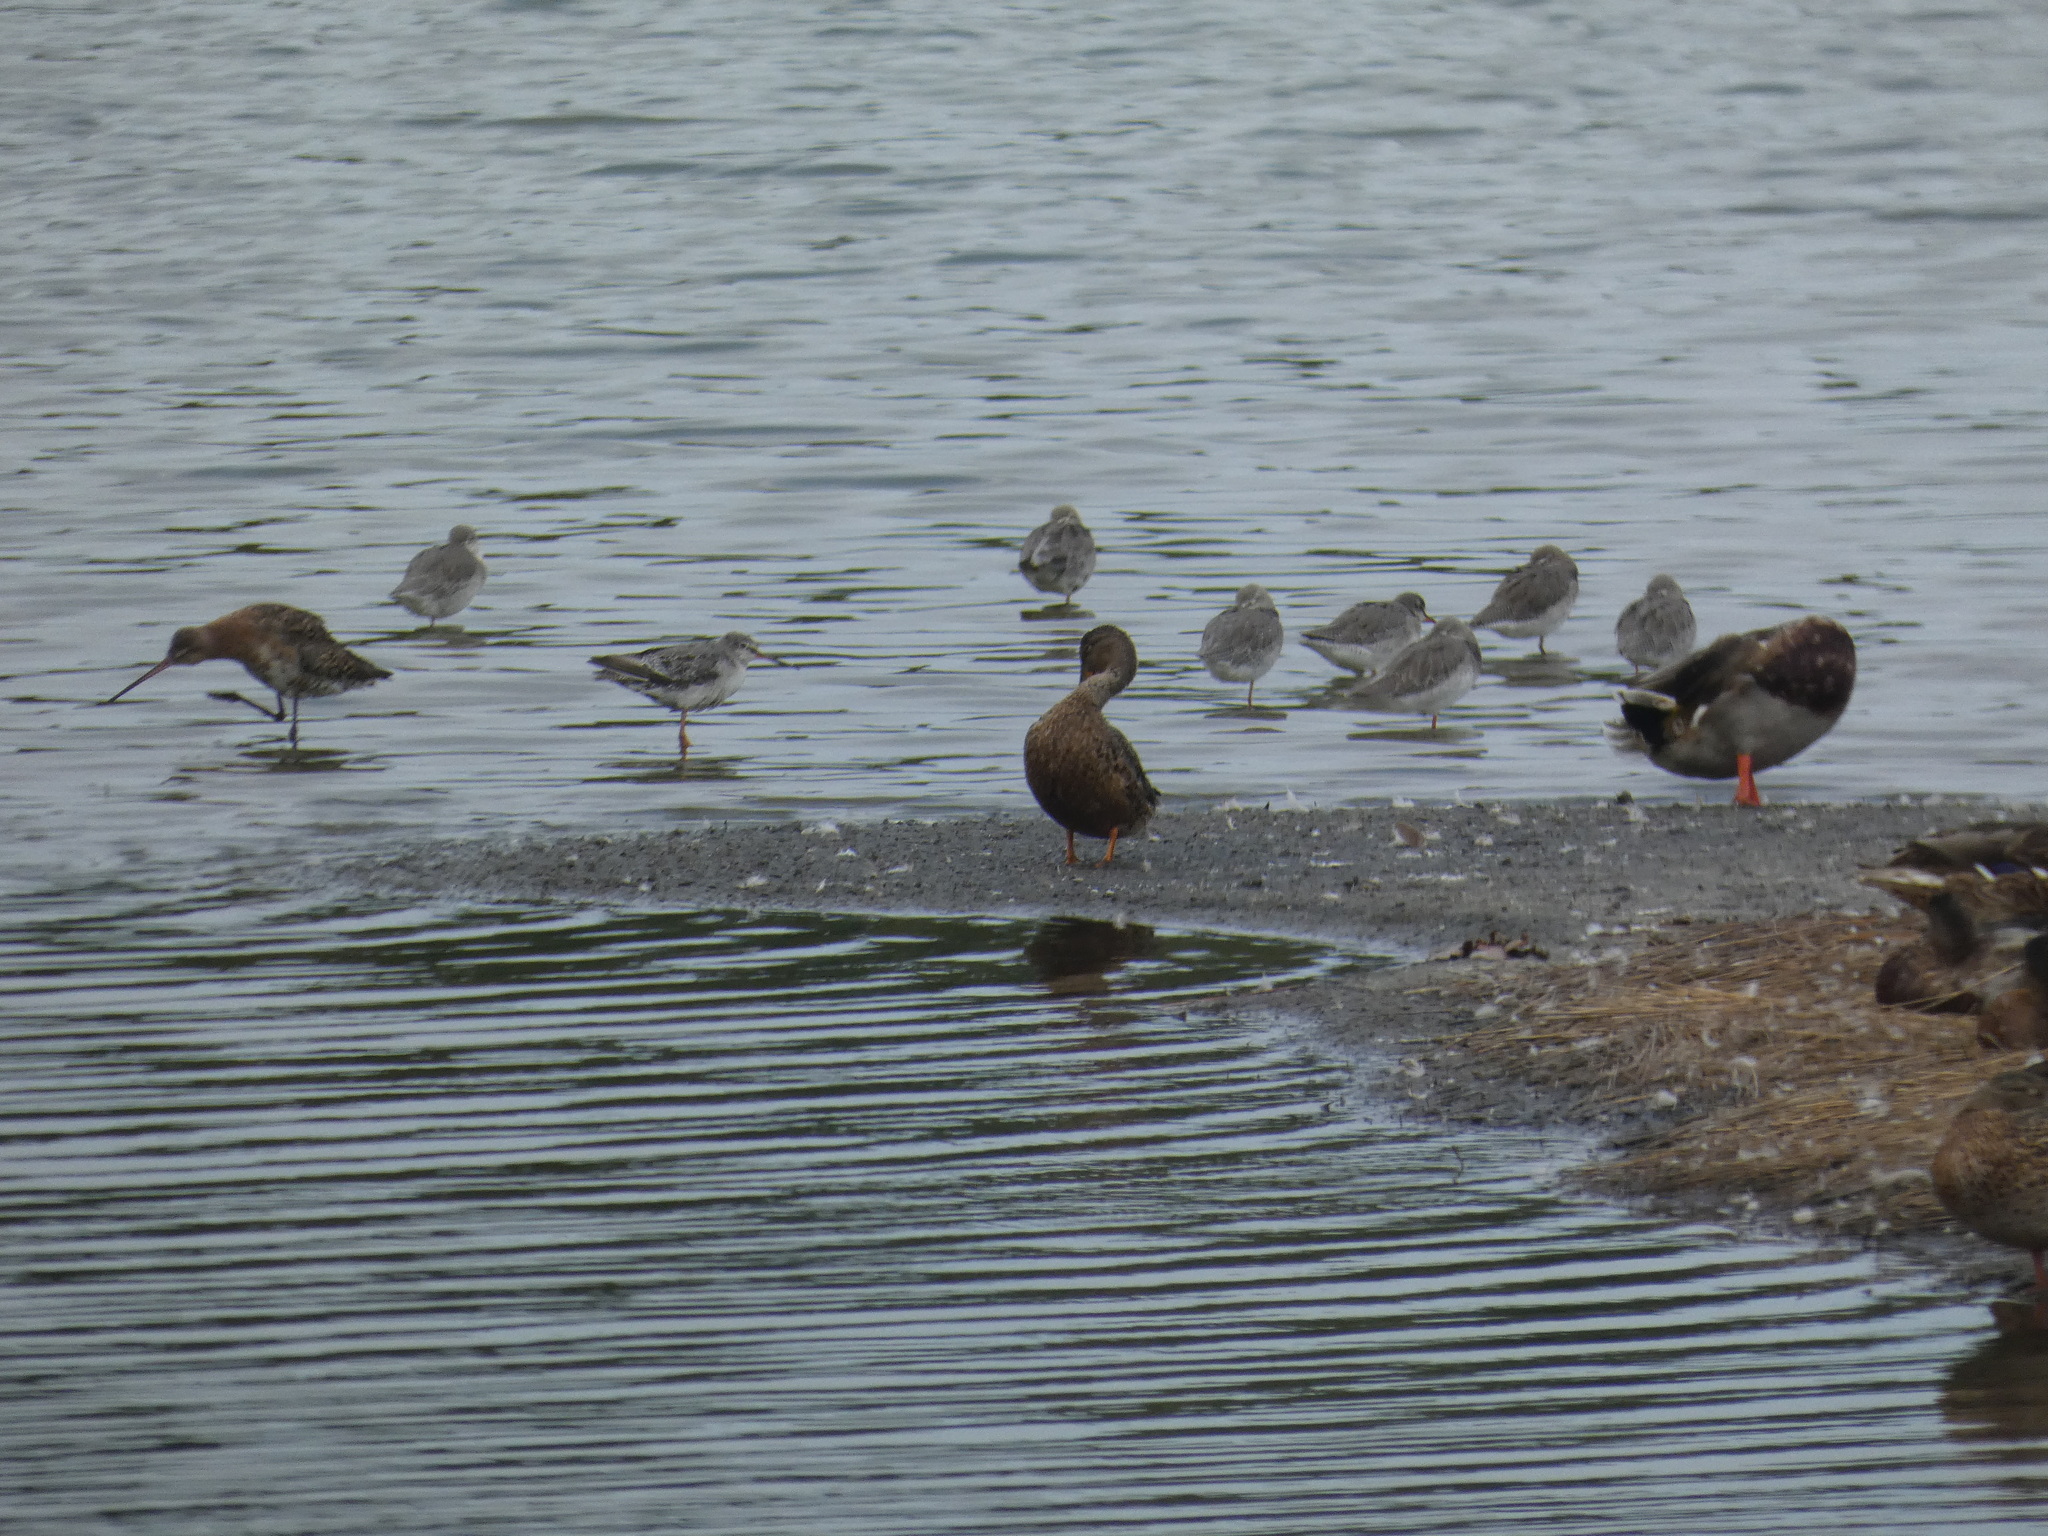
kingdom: Animalia
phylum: Chordata
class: Aves
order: Charadriiformes
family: Scolopacidae
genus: Tringa
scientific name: Tringa erythropus
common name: Spotted redshank
